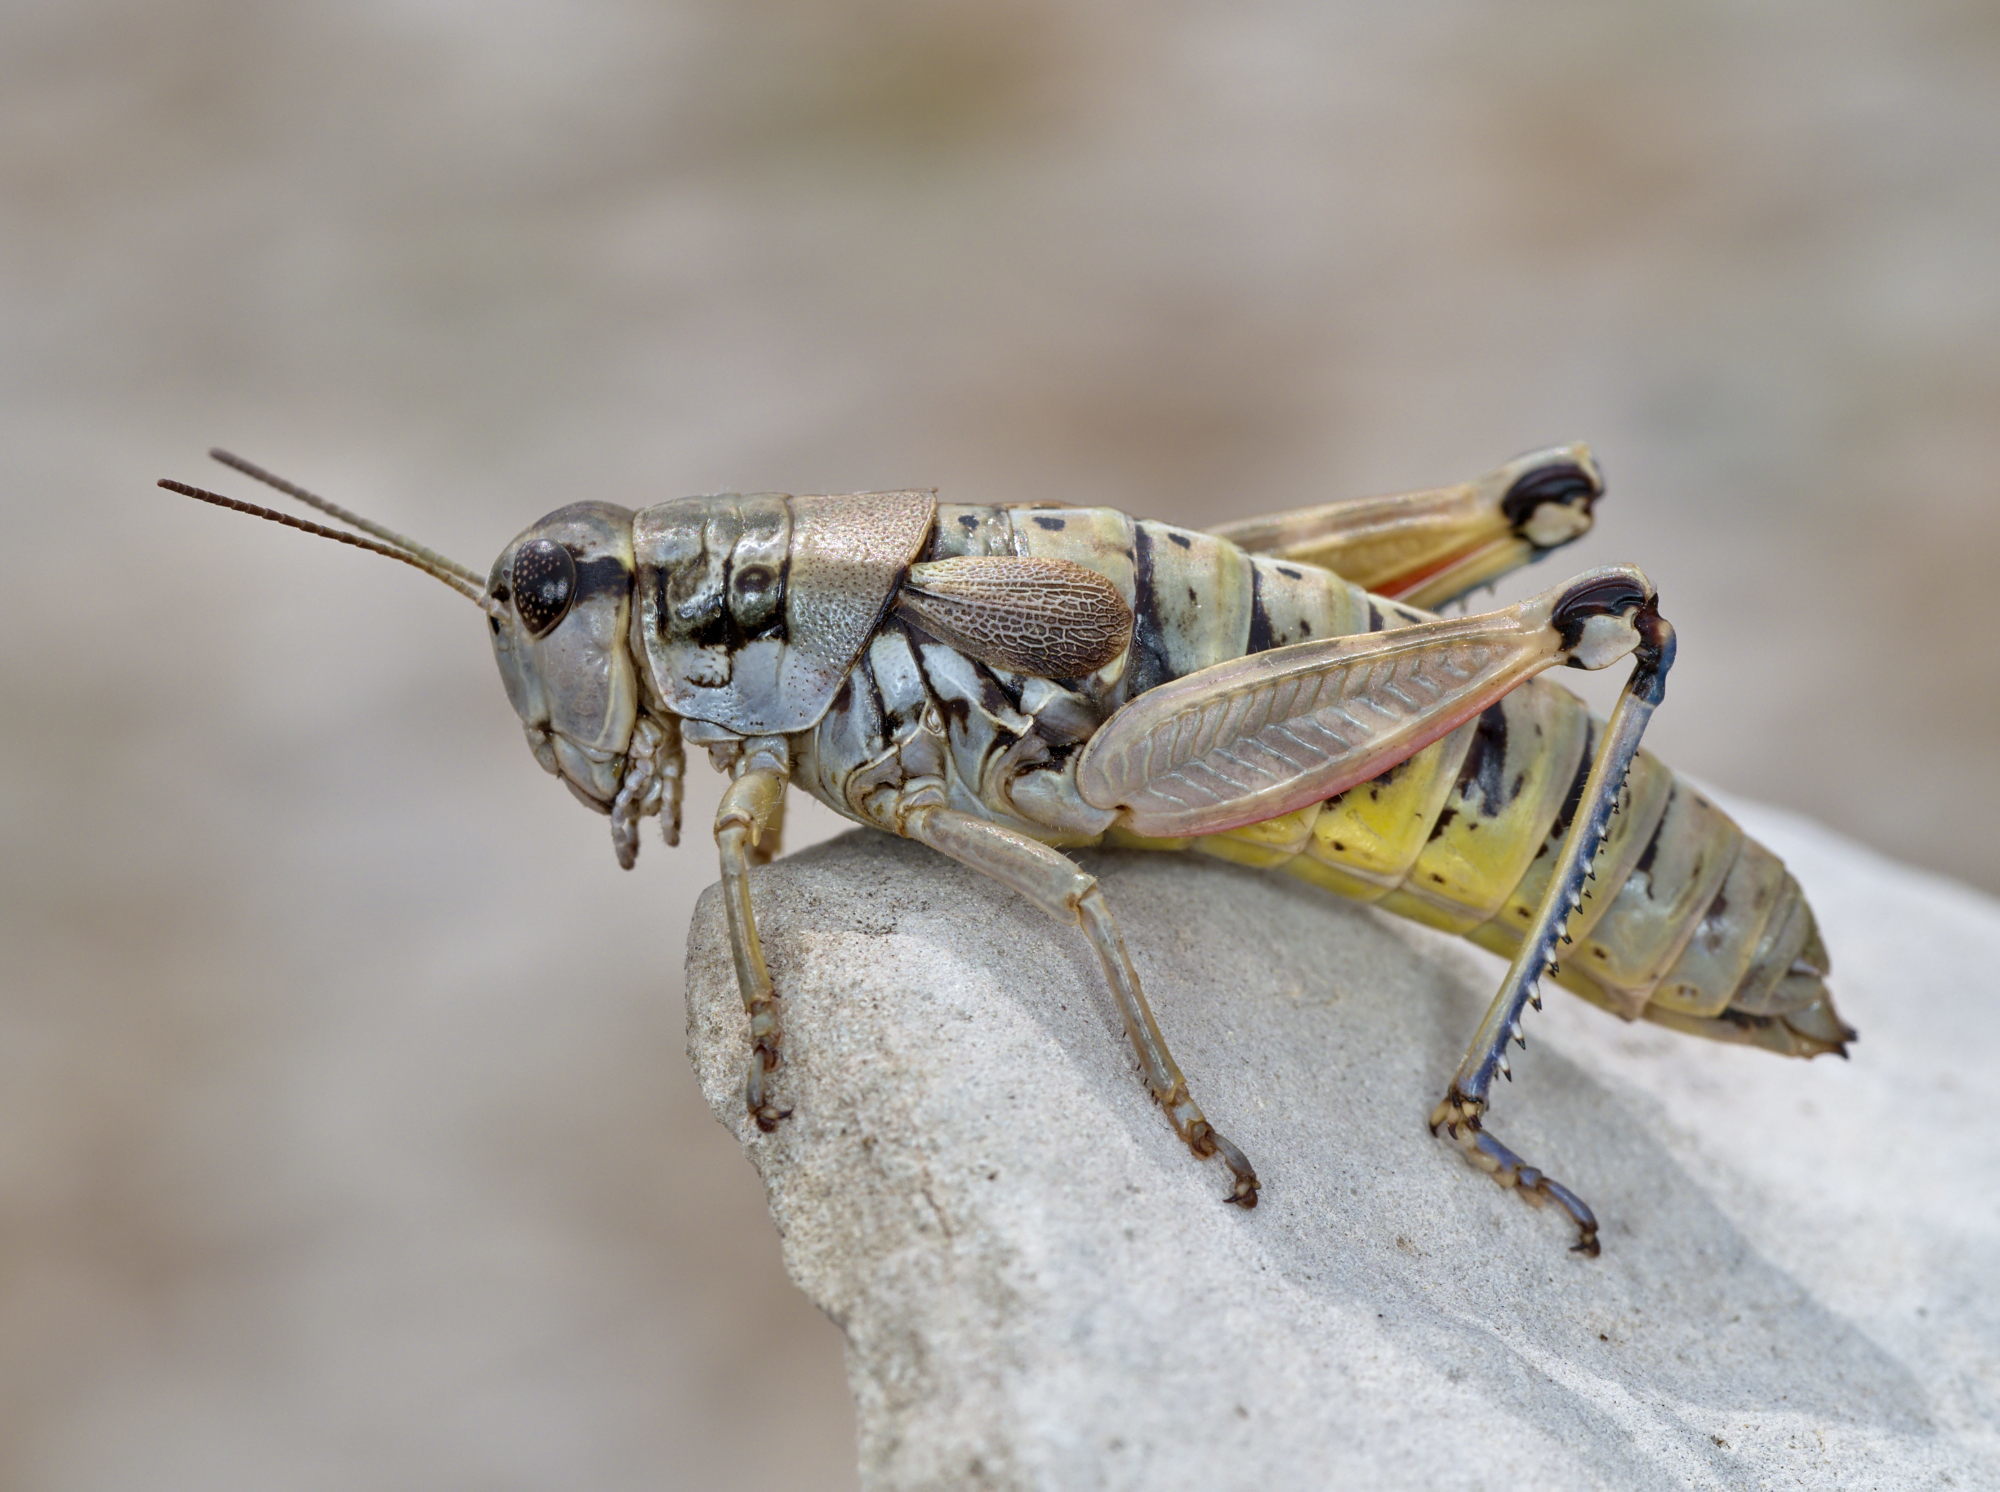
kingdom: Animalia
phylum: Arthropoda
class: Insecta
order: Orthoptera
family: Acrididae
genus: Podisma
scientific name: Podisma amedegnatoae
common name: Ventoux mountain grasshopper
